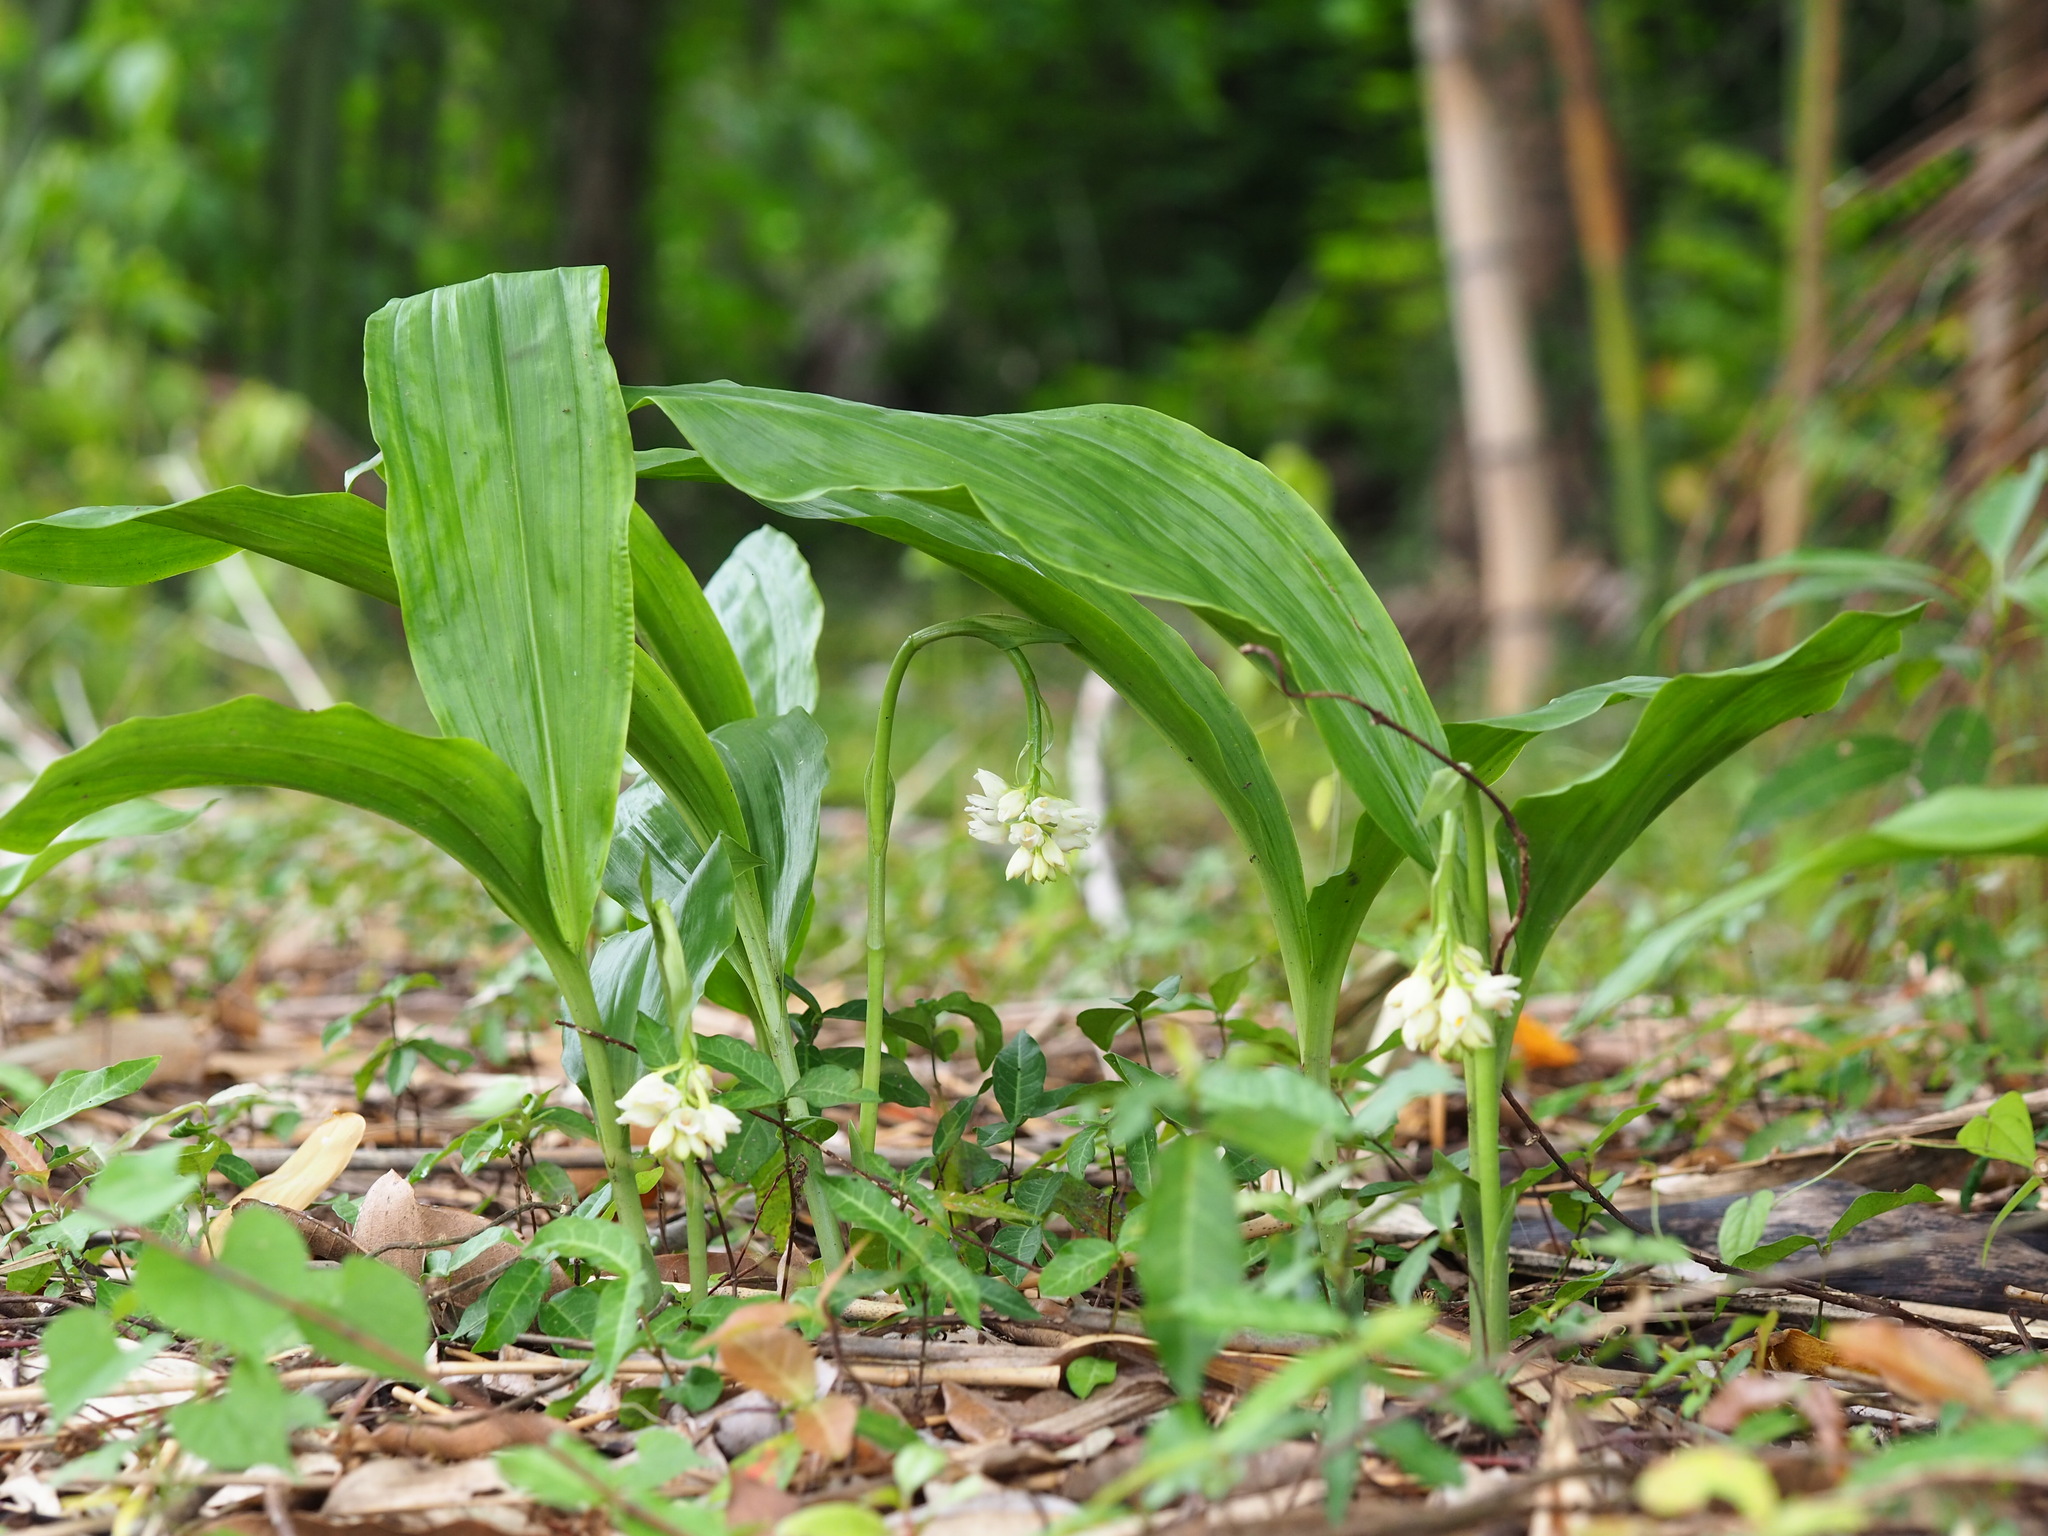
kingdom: Plantae
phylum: Tracheophyta
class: Liliopsida
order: Asparagales
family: Orchidaceae
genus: Eulophia
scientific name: Eulophia cernua
